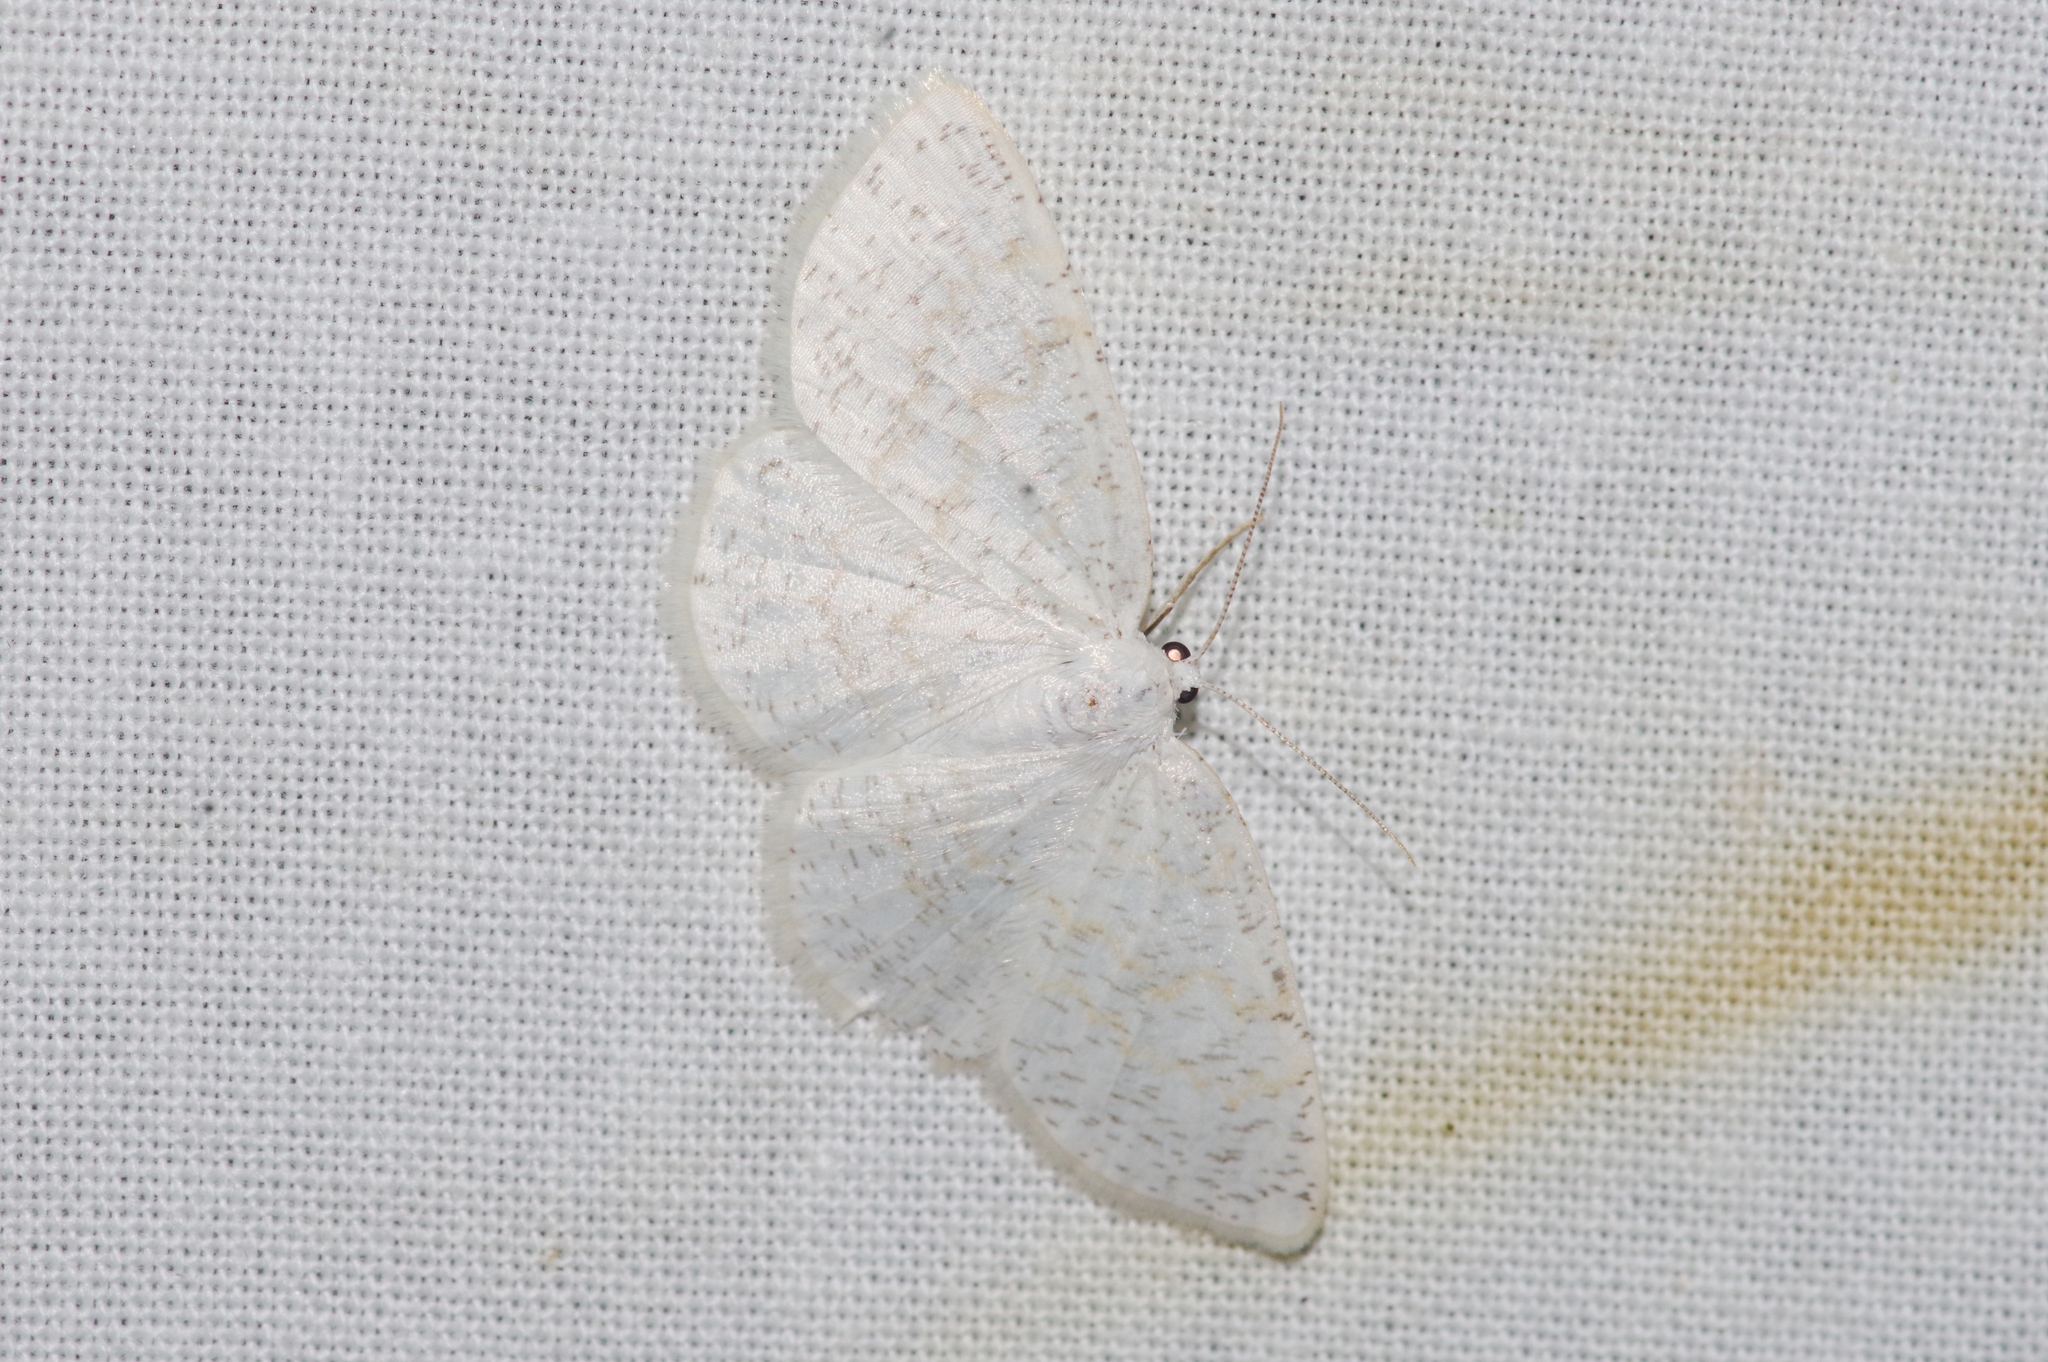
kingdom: Animalia
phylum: Arthropoda
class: Insecta
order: Lepidoptera
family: Geometridae
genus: Cabera
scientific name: Cabera purus
